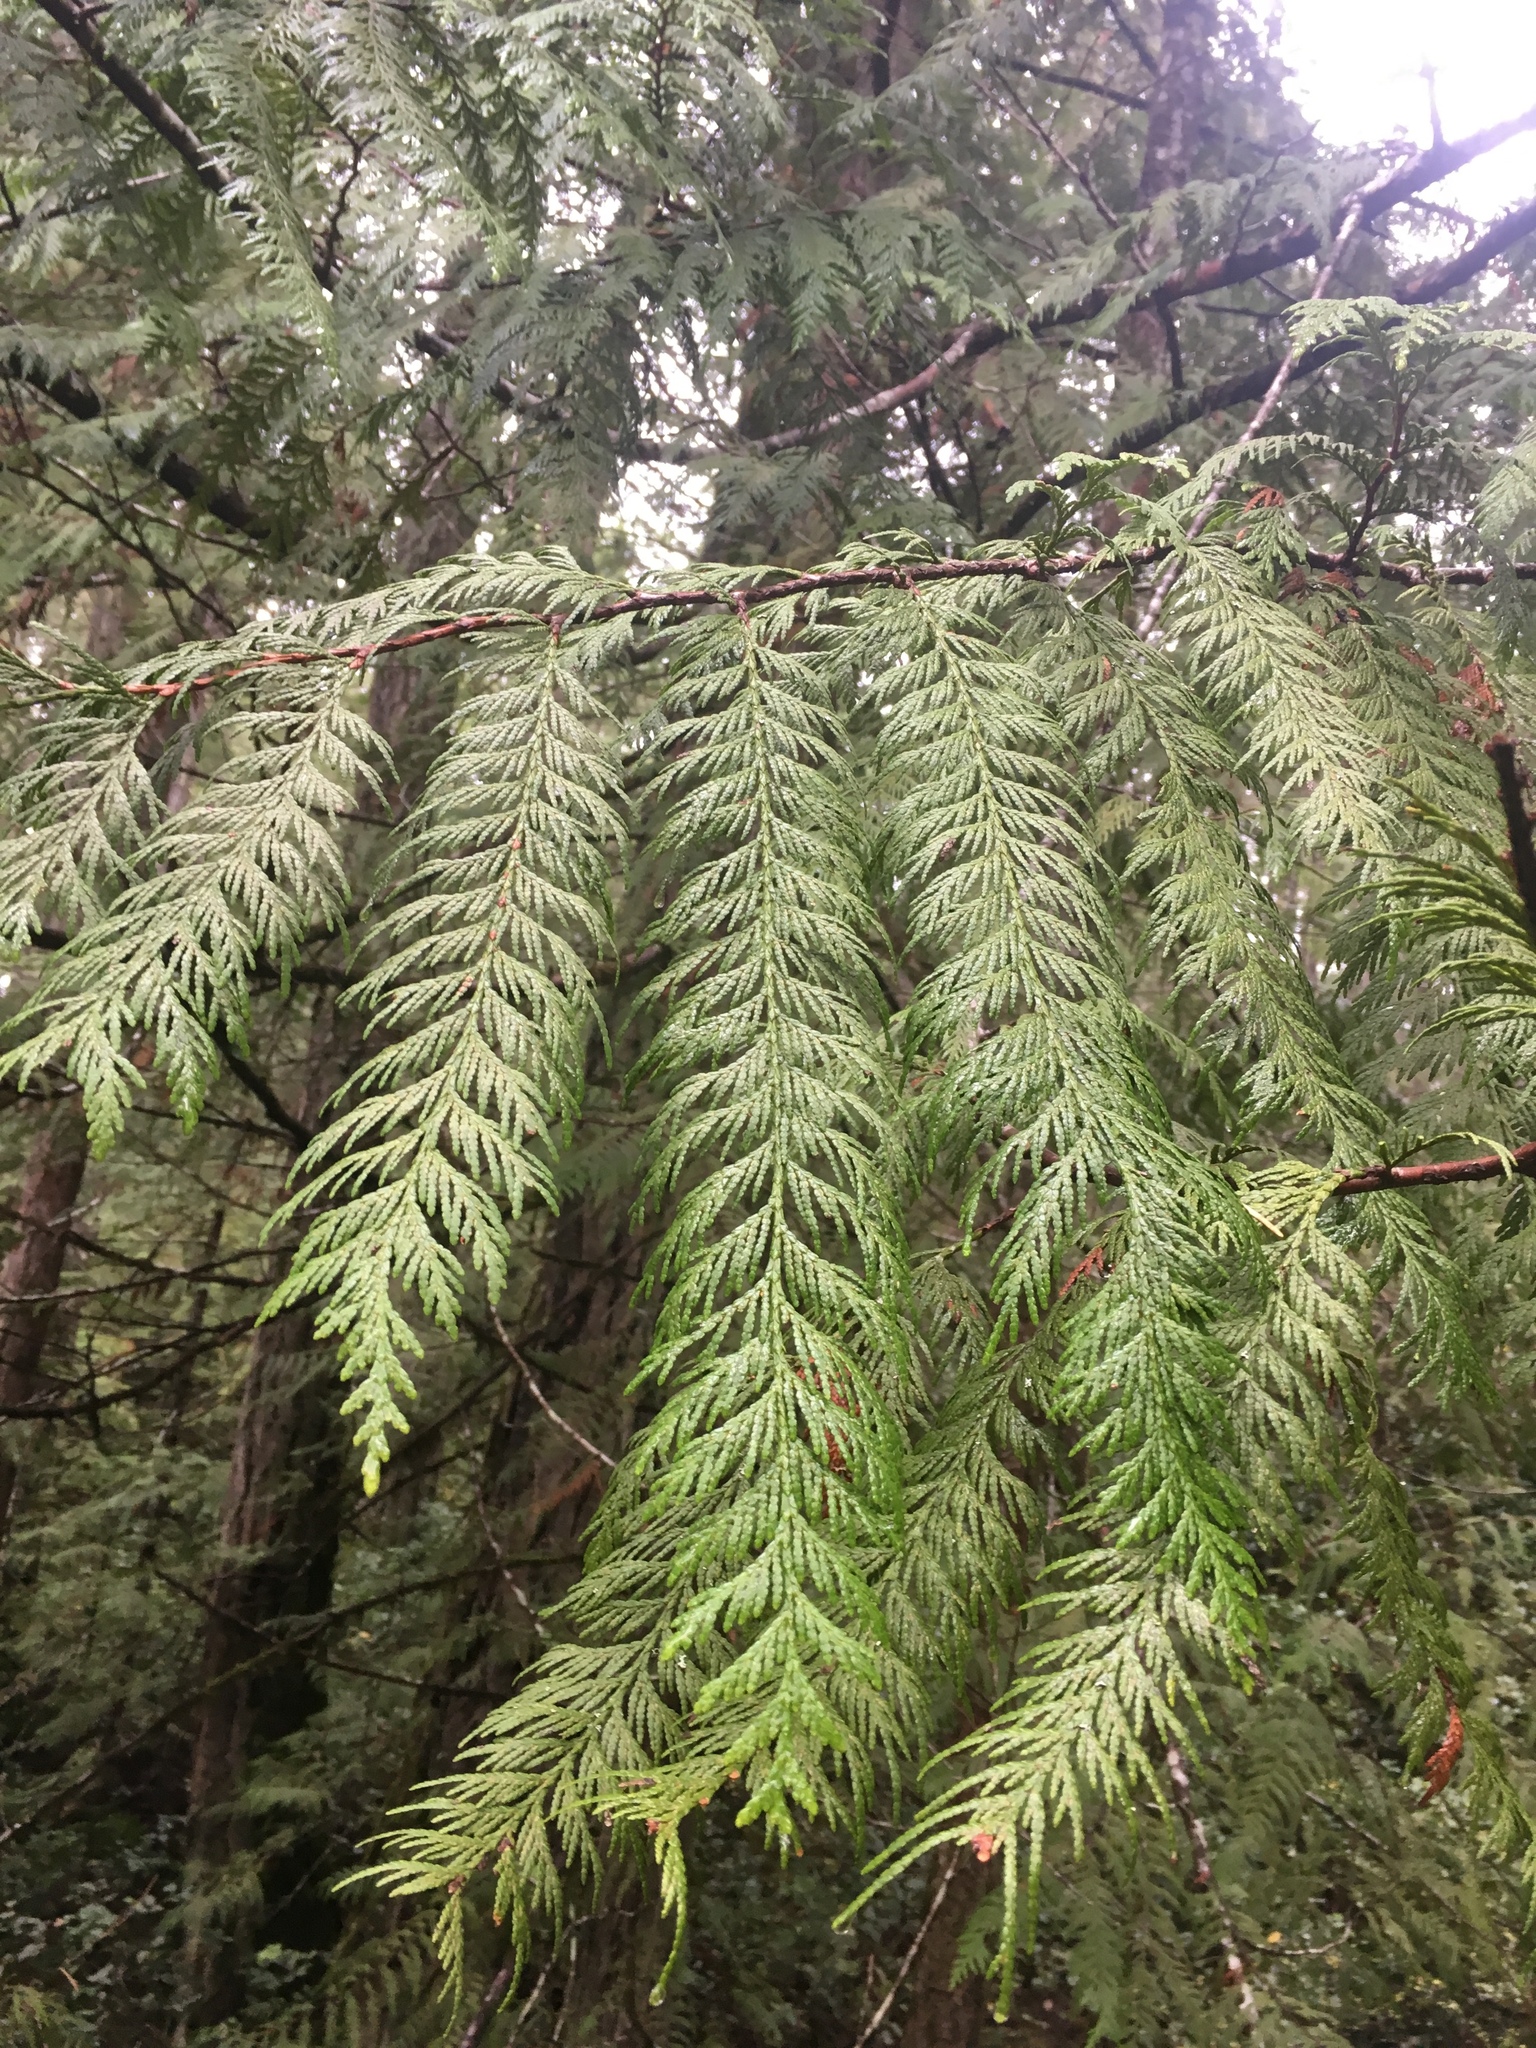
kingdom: Plantae
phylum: Tracheophyta
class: Pinopsida
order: Pinales
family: Cupressaceae
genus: Thuja
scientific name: Thuja plicata
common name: Western red-cedar
